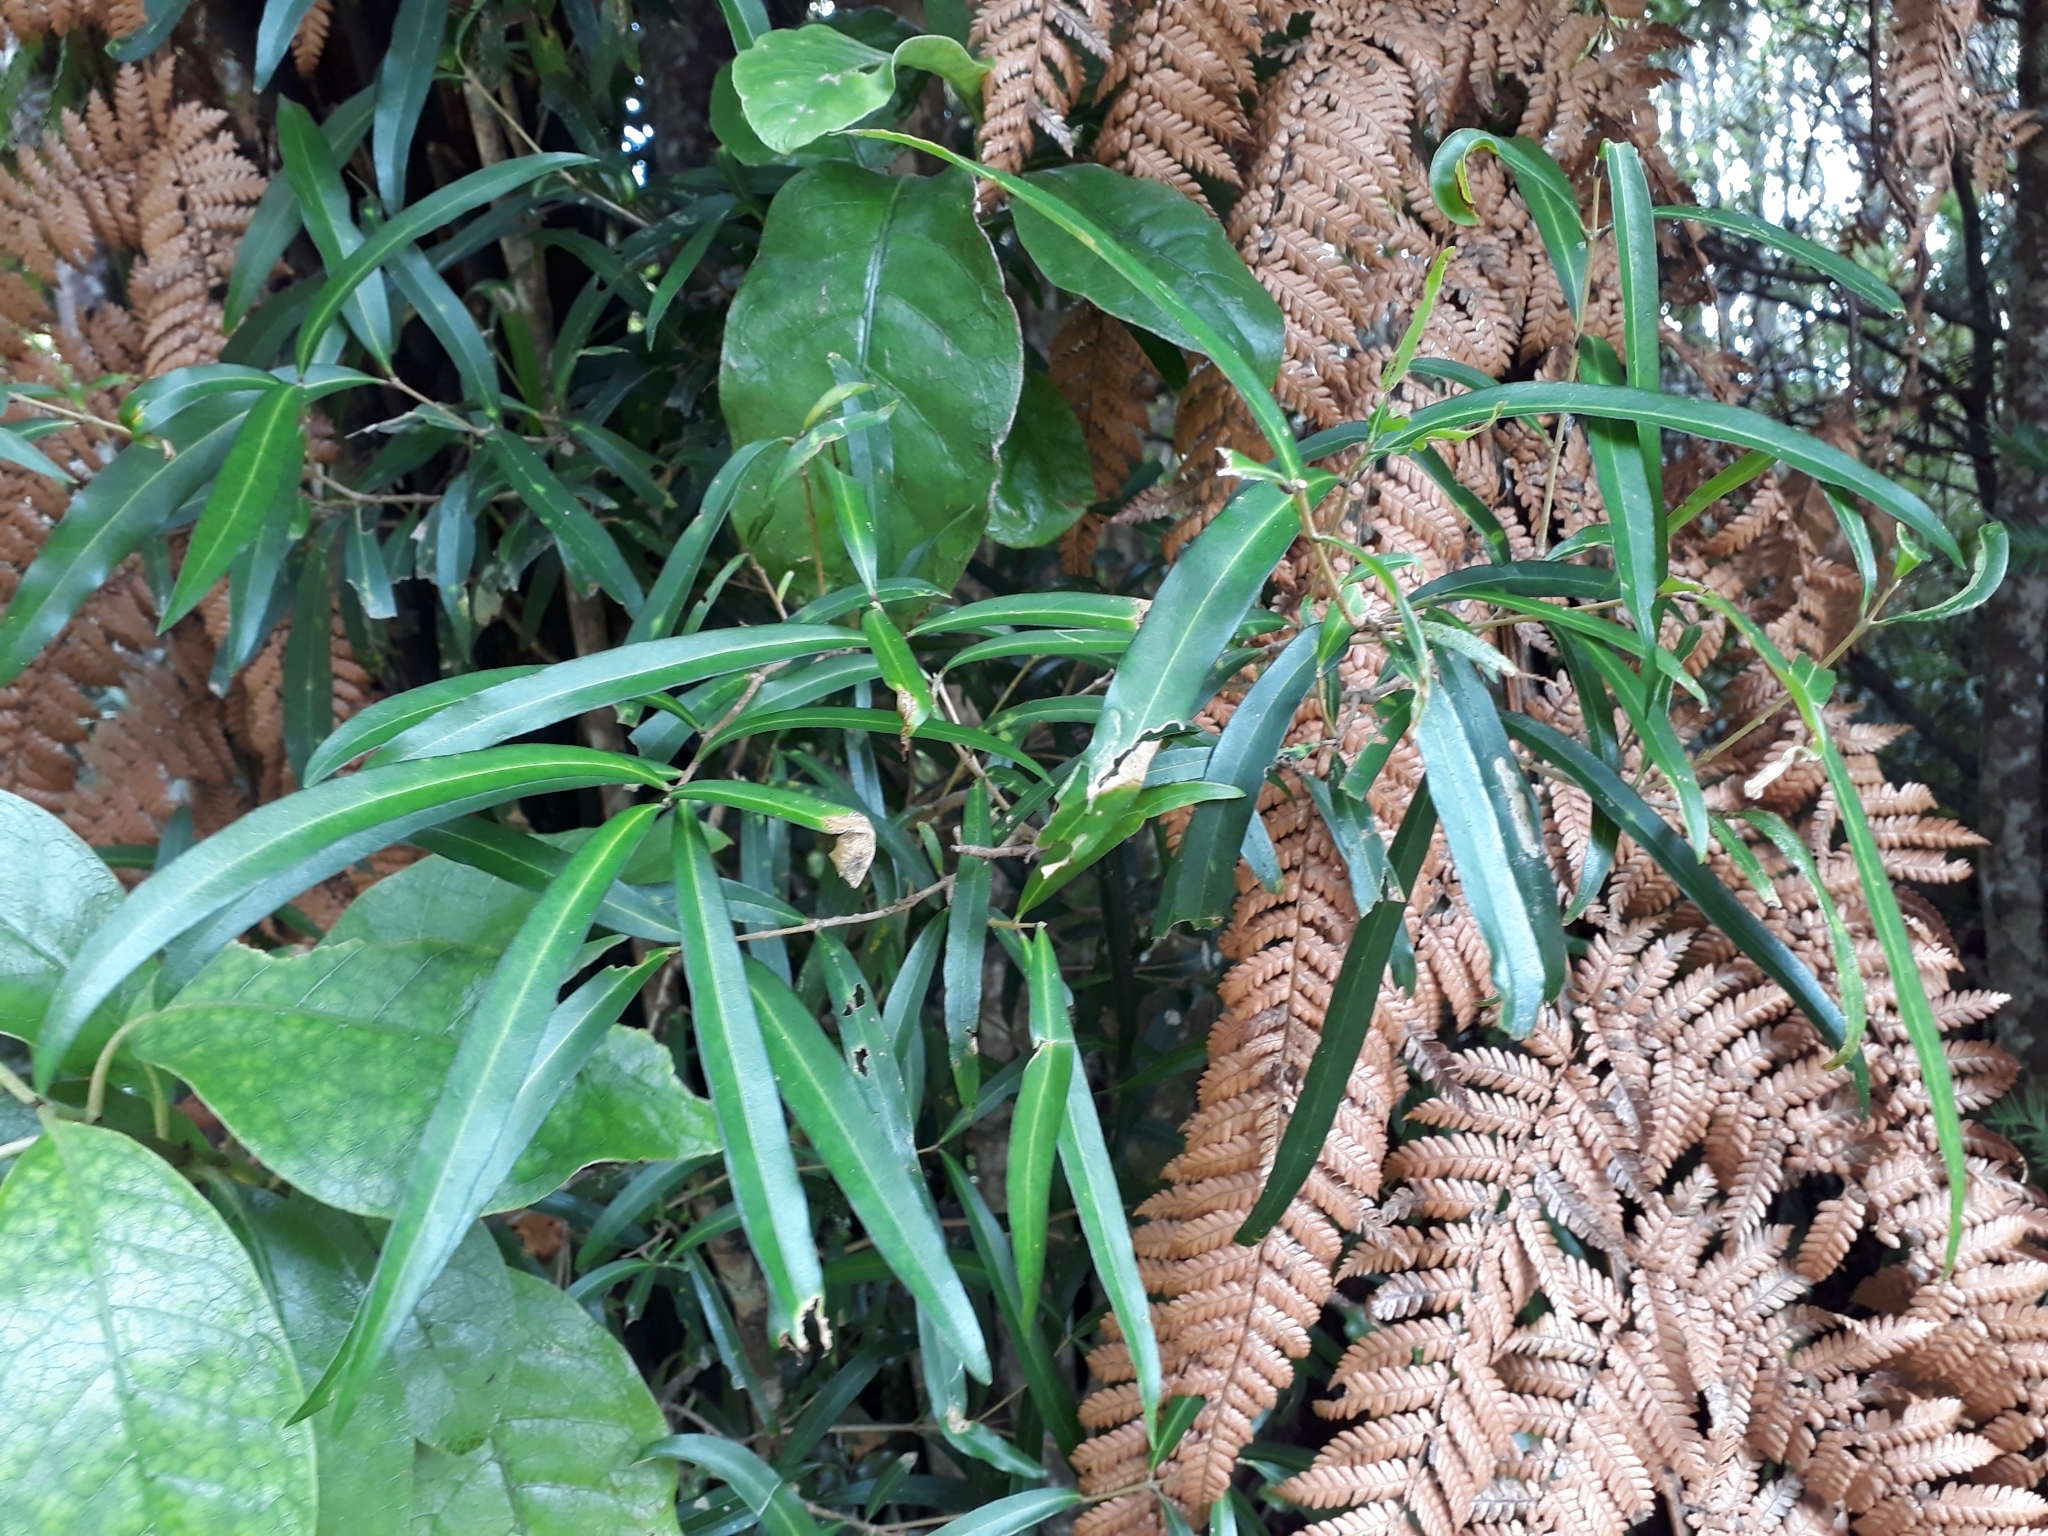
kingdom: Plantae
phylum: Tracheophyta
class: Magnoliopsida
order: Lamiales
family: Oleaceae
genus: Nestegis
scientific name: Nestegis lanceolata
